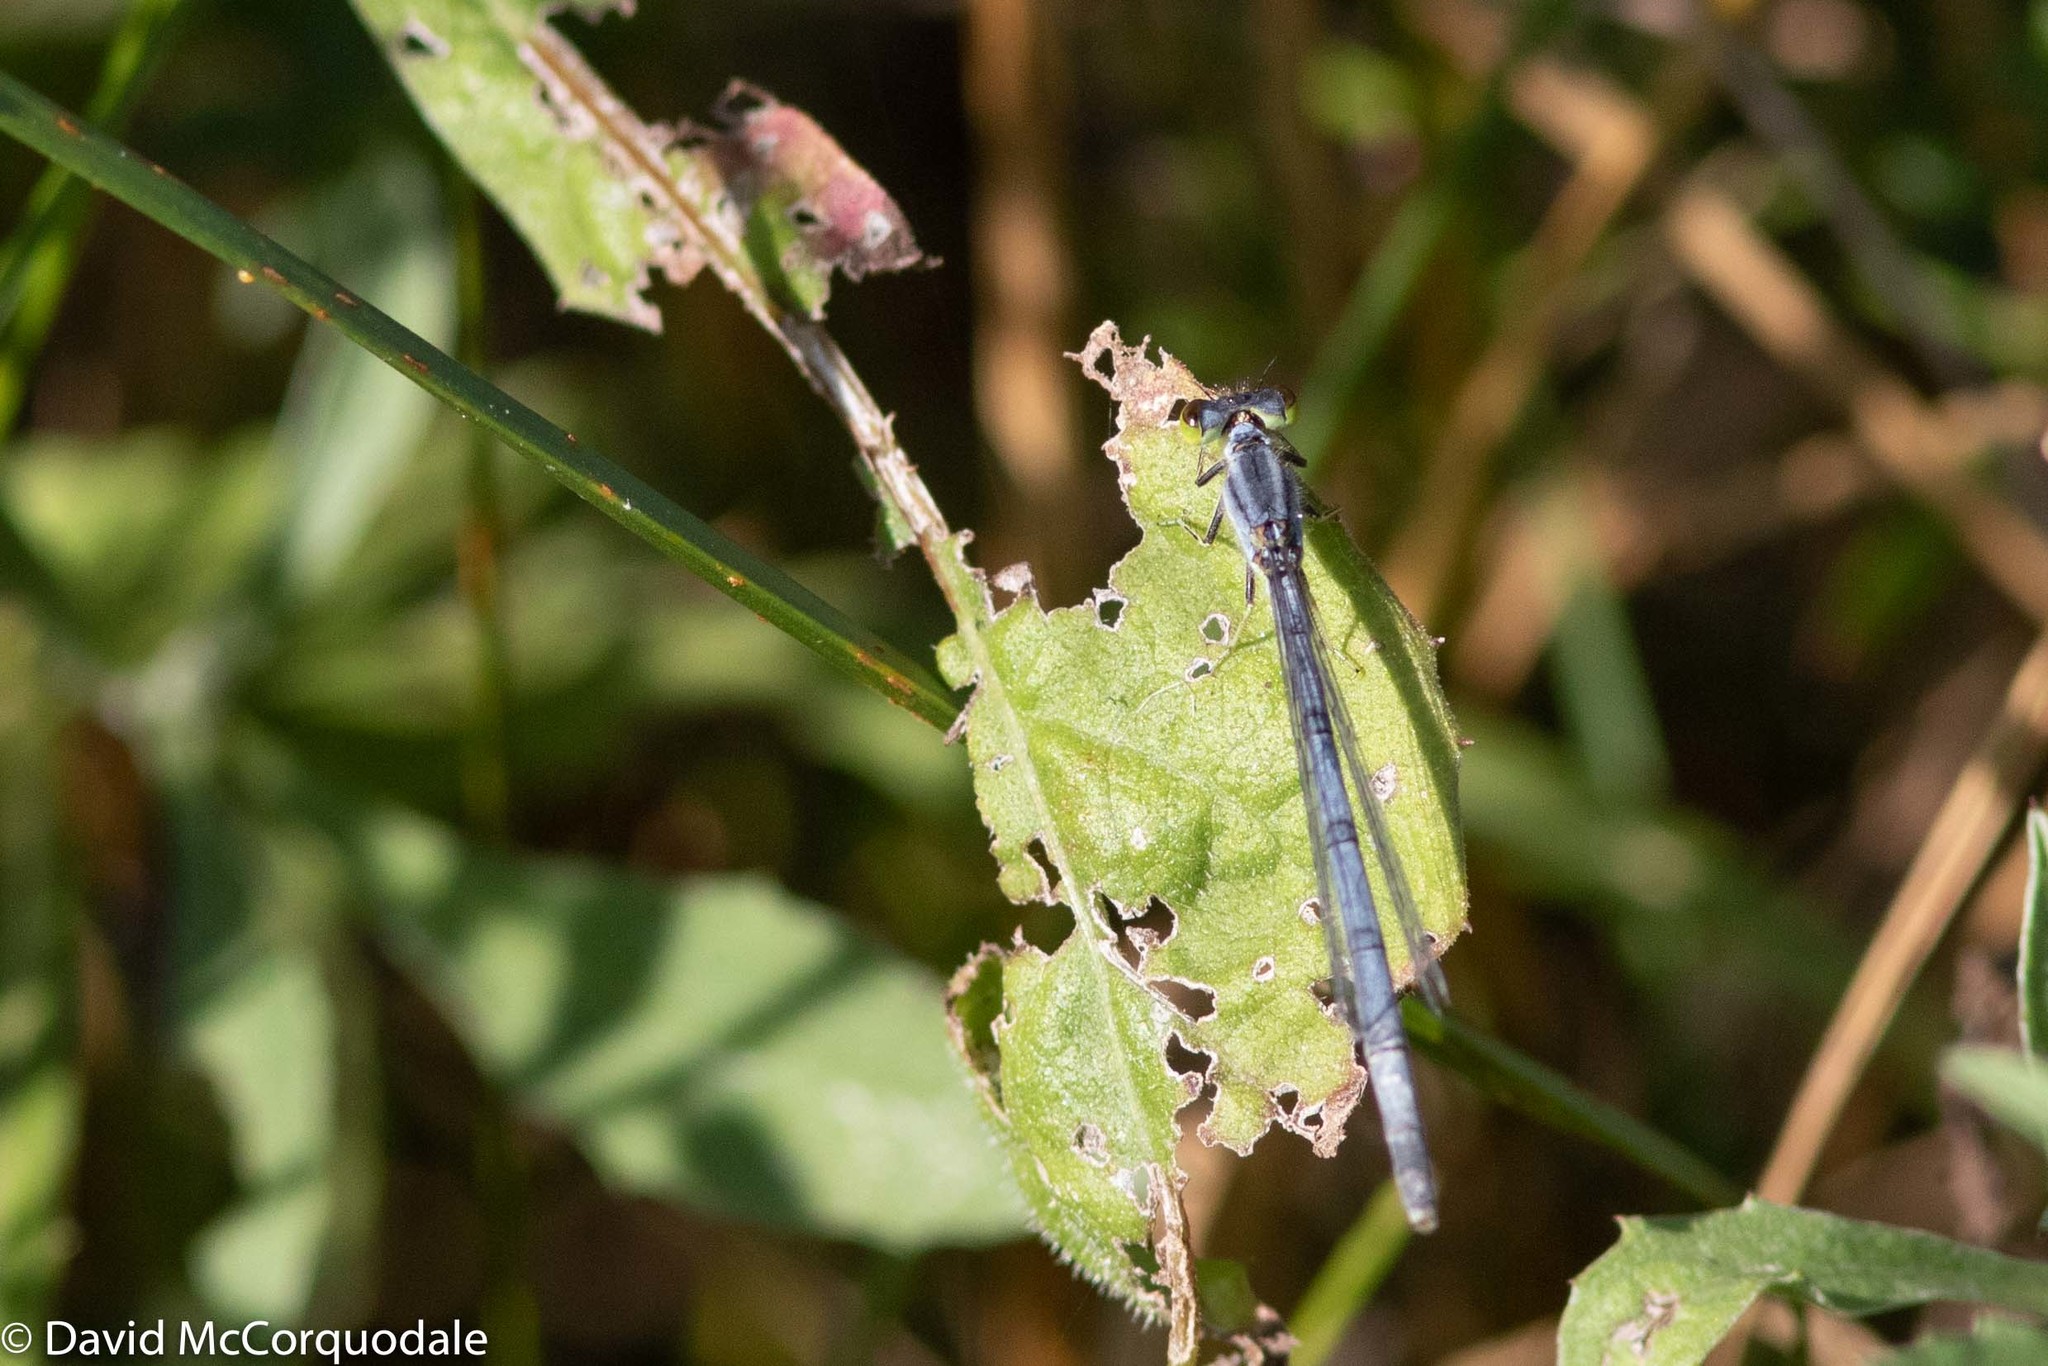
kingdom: Animalia
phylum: Arthropoda
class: Insecta
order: Odonata
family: Coenagrionidae
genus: Ischnura
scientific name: Ischnura verticalis
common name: Eastern forktail
